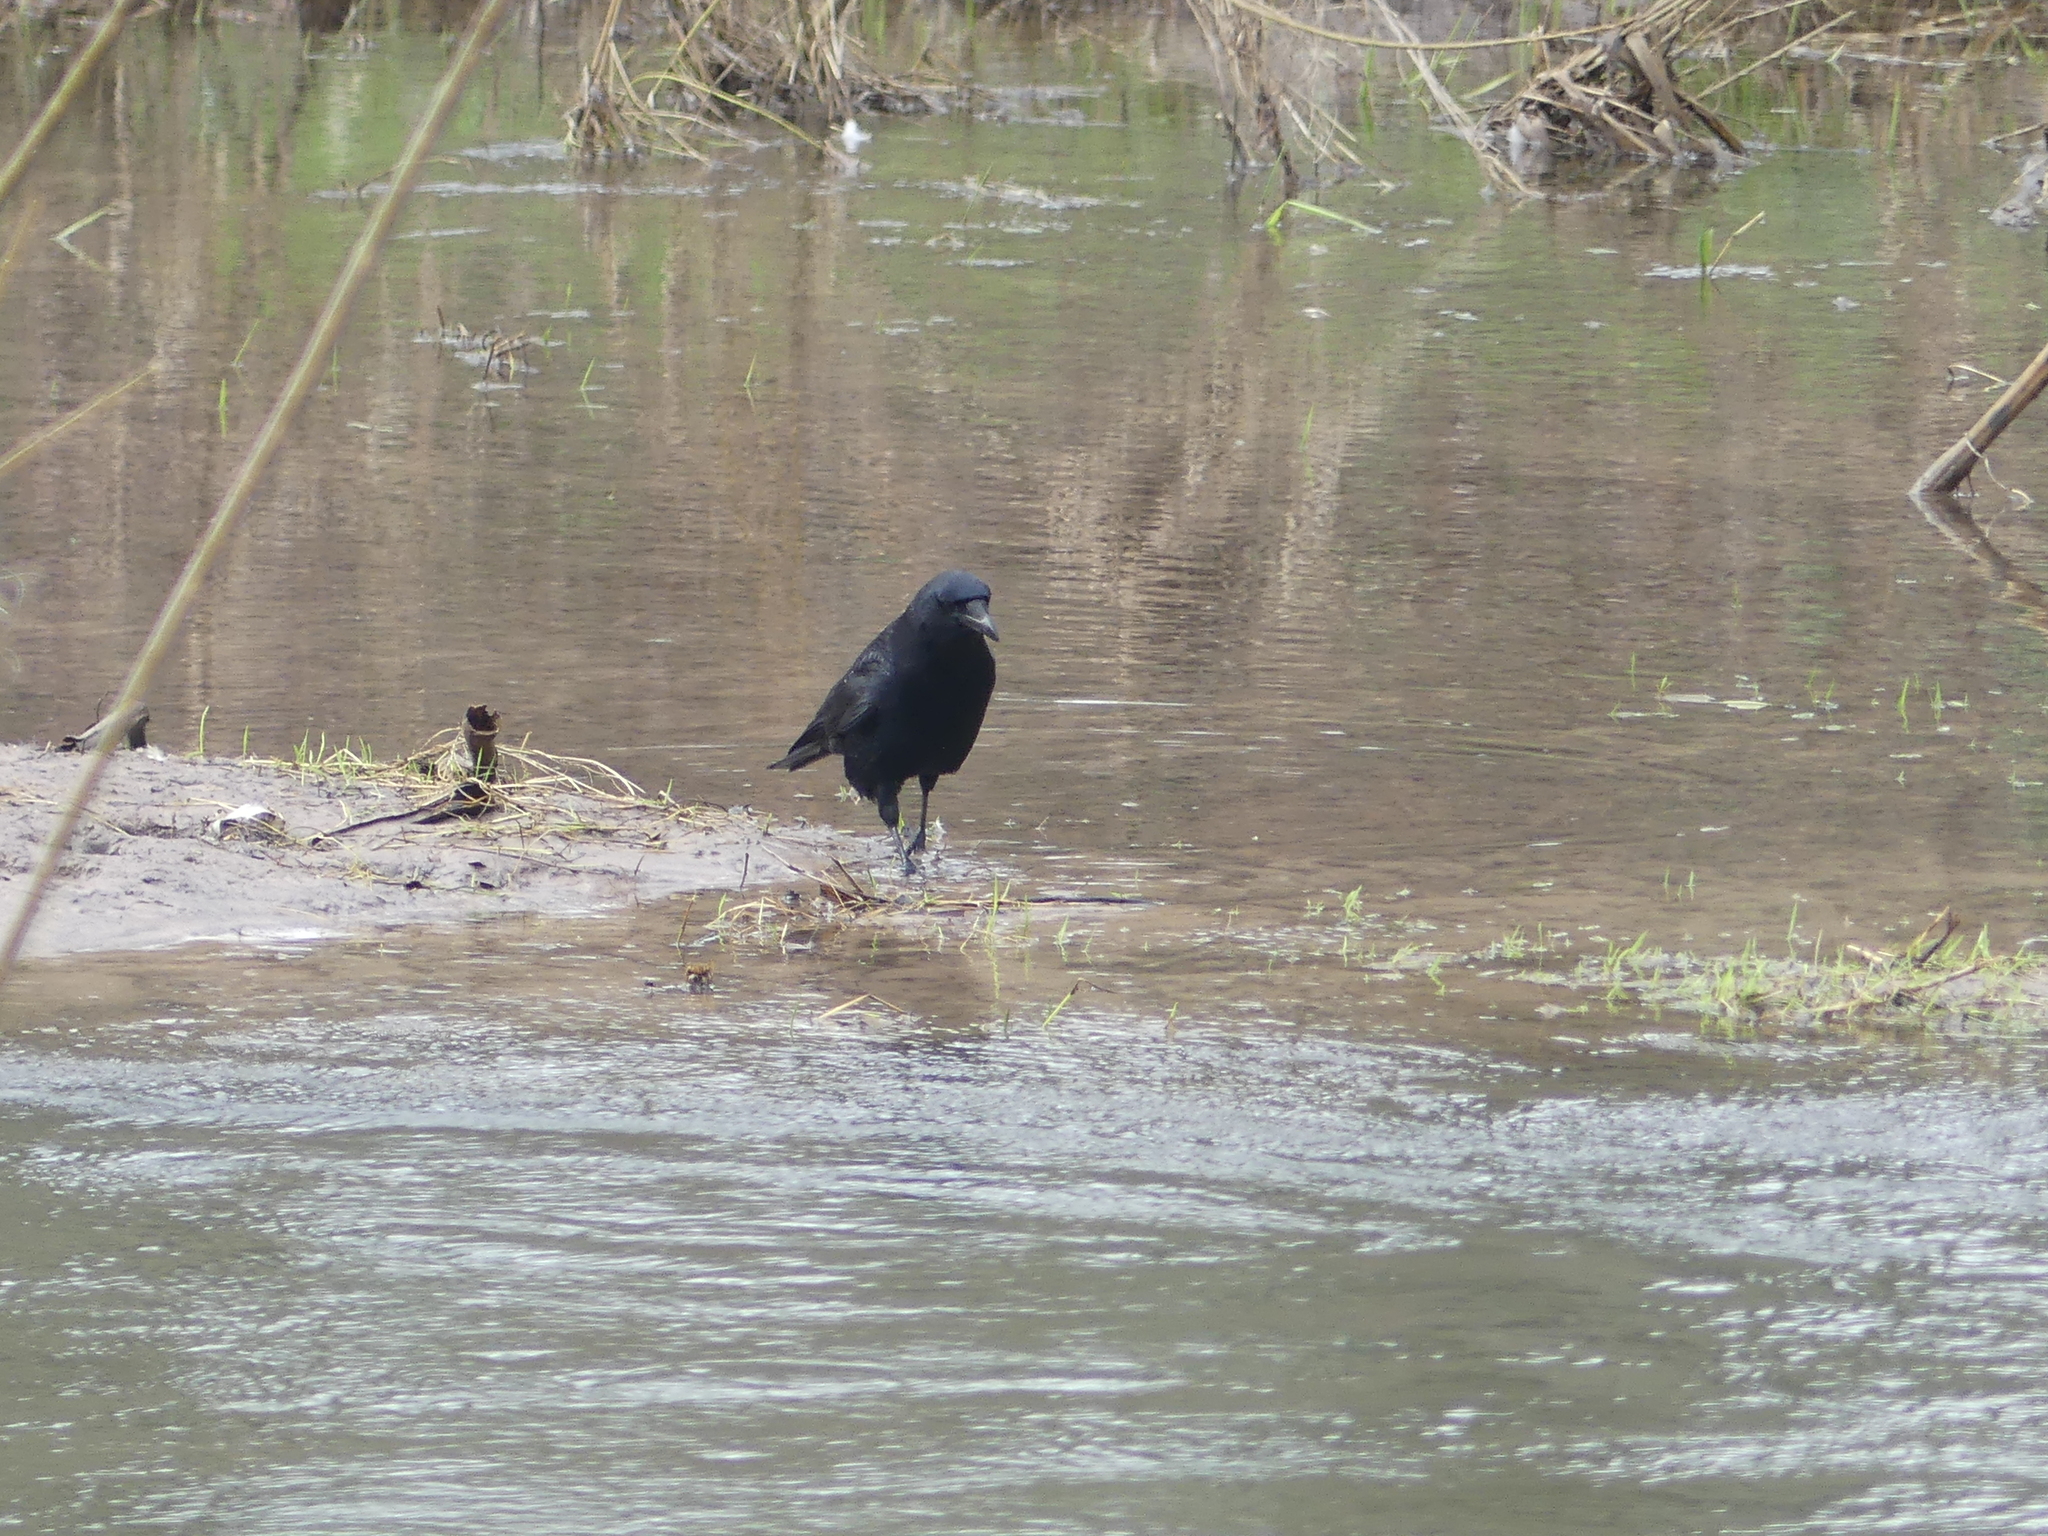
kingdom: Animalia
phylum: Chordata
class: Aves
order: Passeriformes
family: Corvidae
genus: Corvus
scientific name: Corvus corone
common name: Carrion crow
